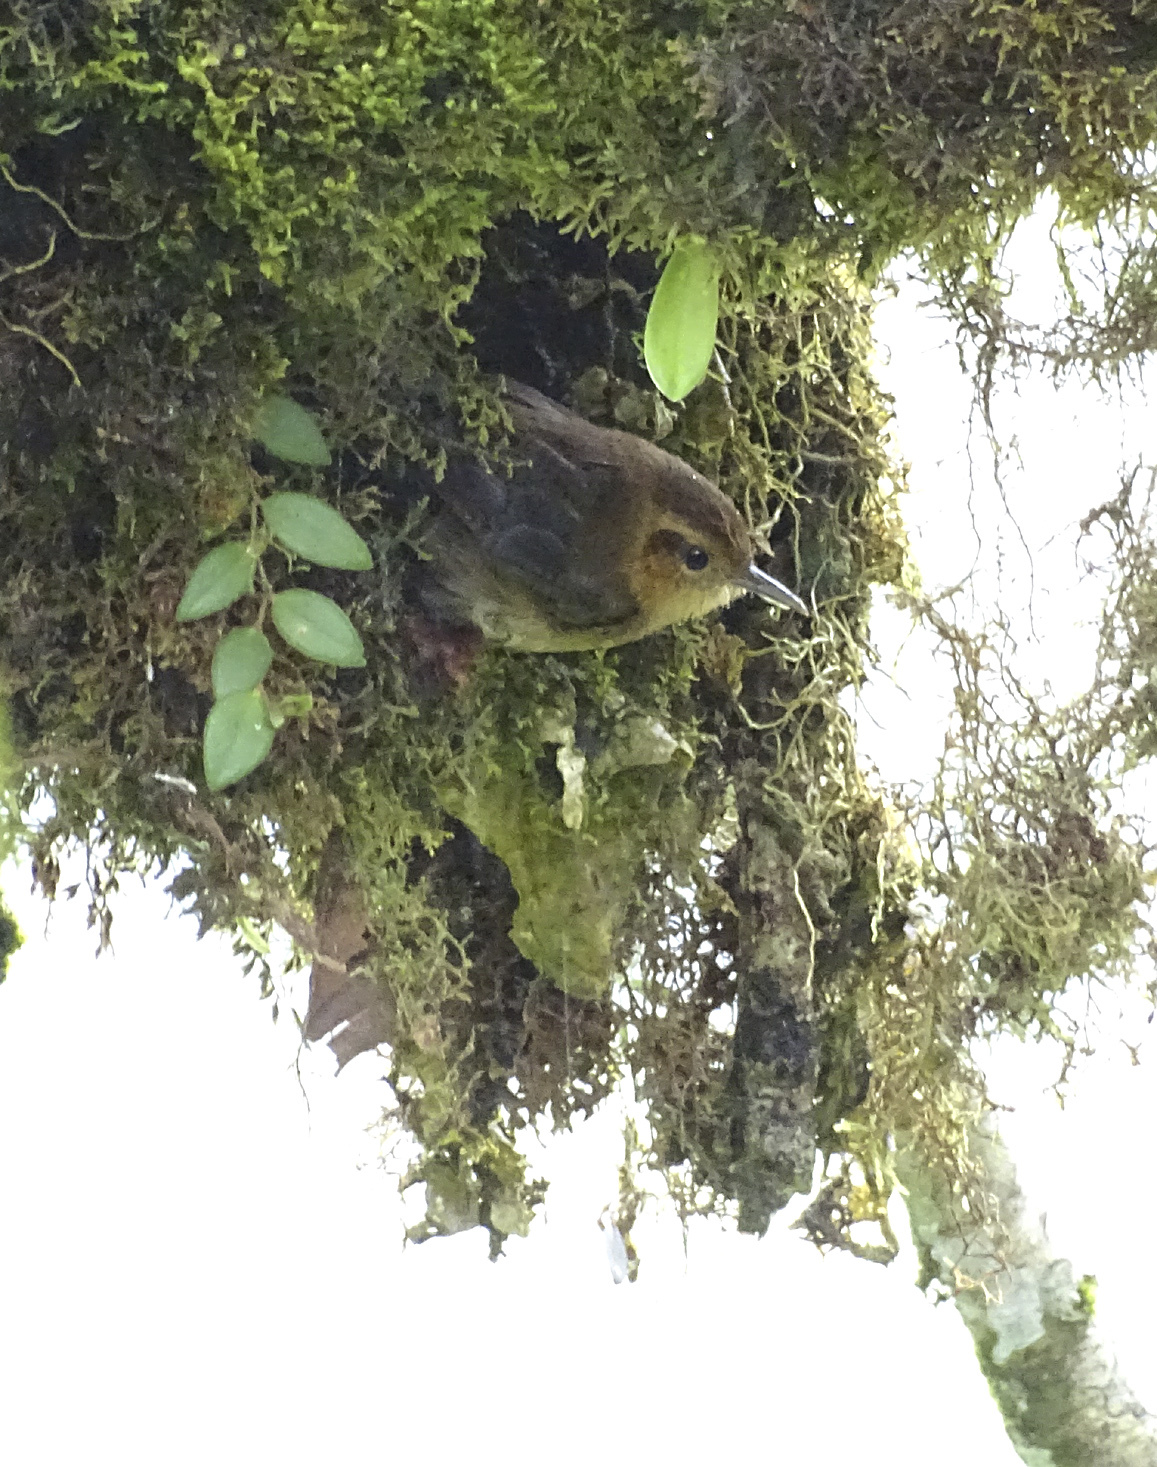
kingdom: Animalia
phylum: Chordata
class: Aves
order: Passeriformes
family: Troglodytidae
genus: Troglodytes
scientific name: Troglodytes solstitialis
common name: Mountain wren
